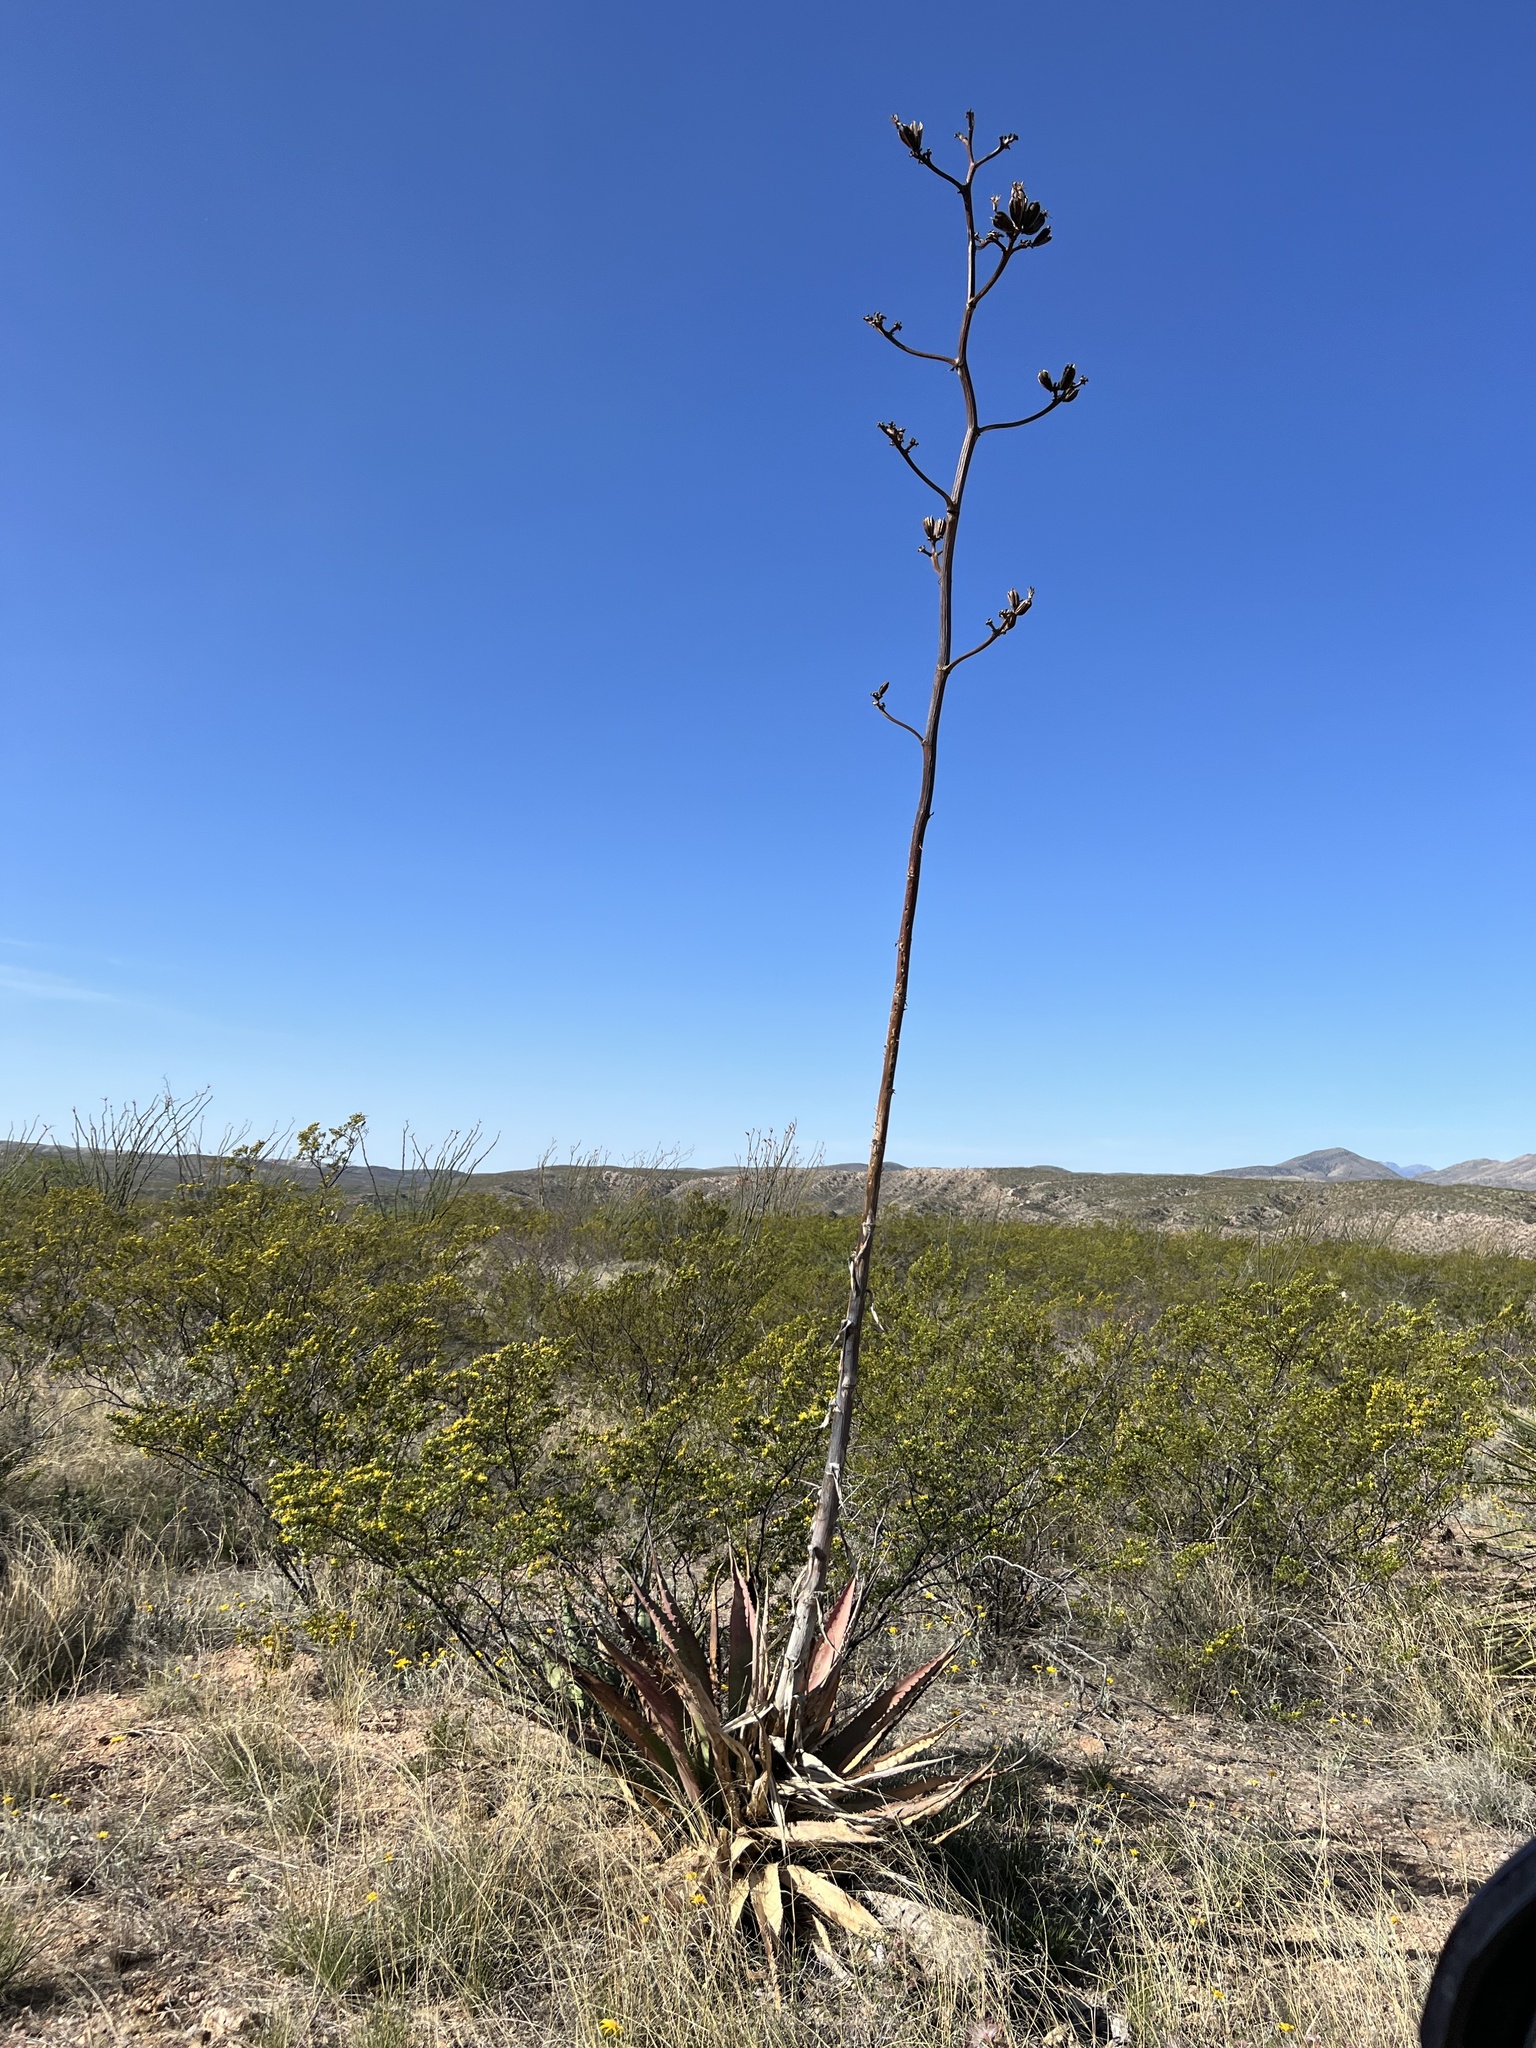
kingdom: Plantae
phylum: Tracheophyta
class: Liliopsida
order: Asparagales
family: Asparagaceae
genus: Agave
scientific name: Agave palmeri
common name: Palmer agave
